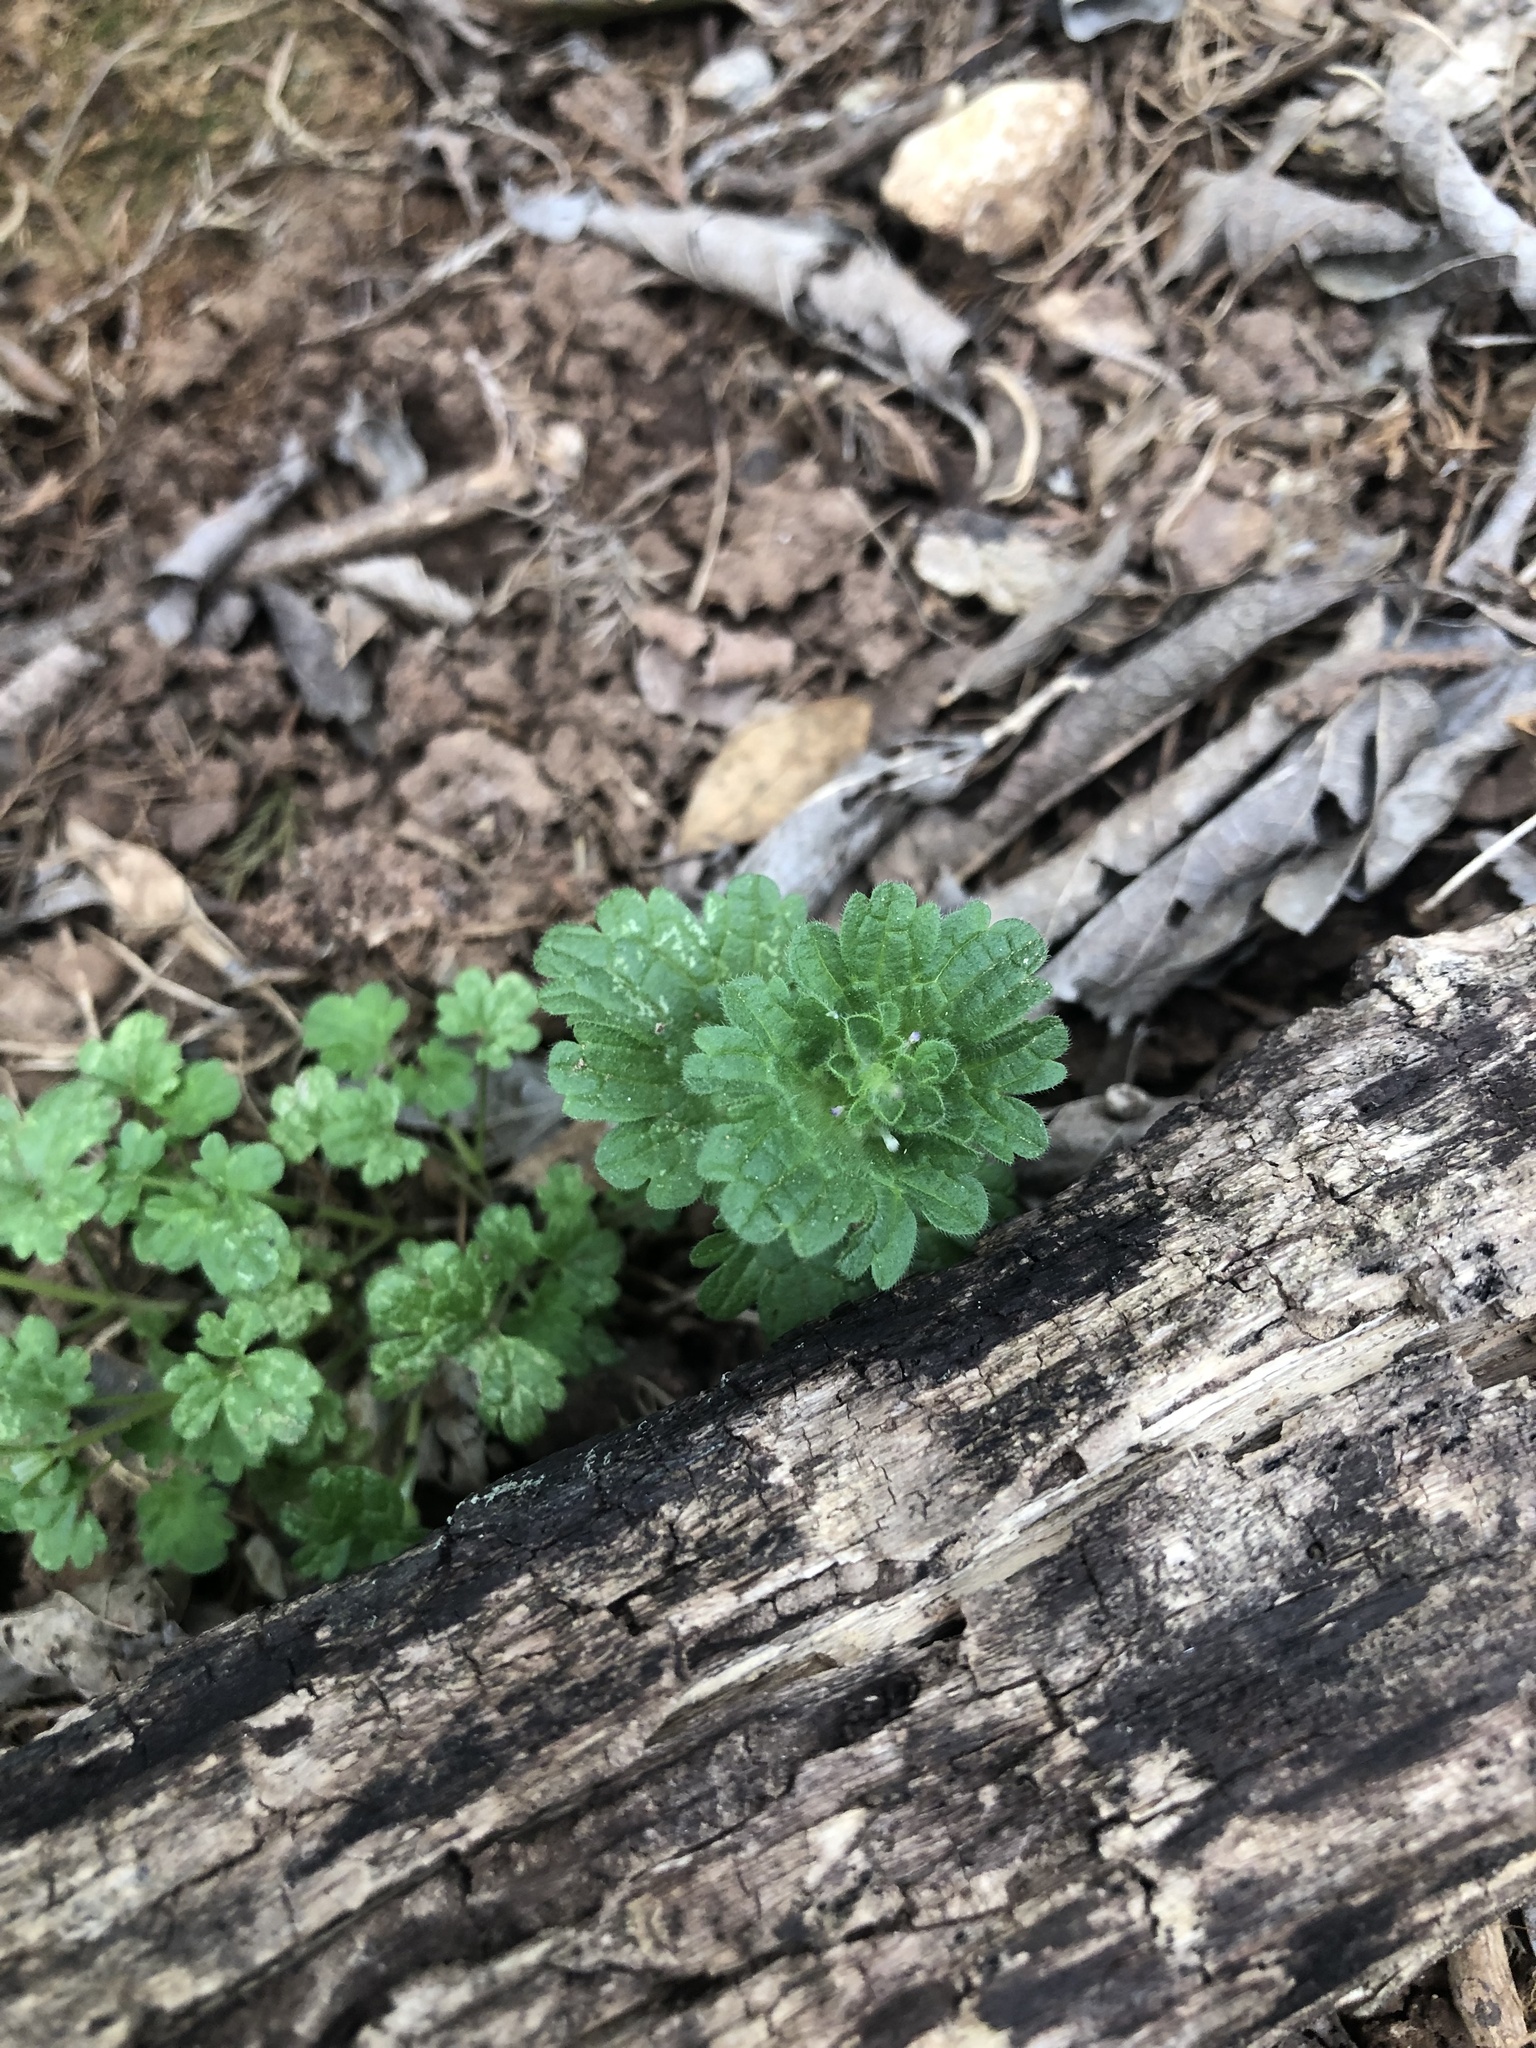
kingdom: Plantae
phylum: Tracheophyta
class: Magnoliopsida
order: Lamiales
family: Lamiaceae
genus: Lamium
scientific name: Lamium amplexicaule
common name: Henbit dead-nettle
